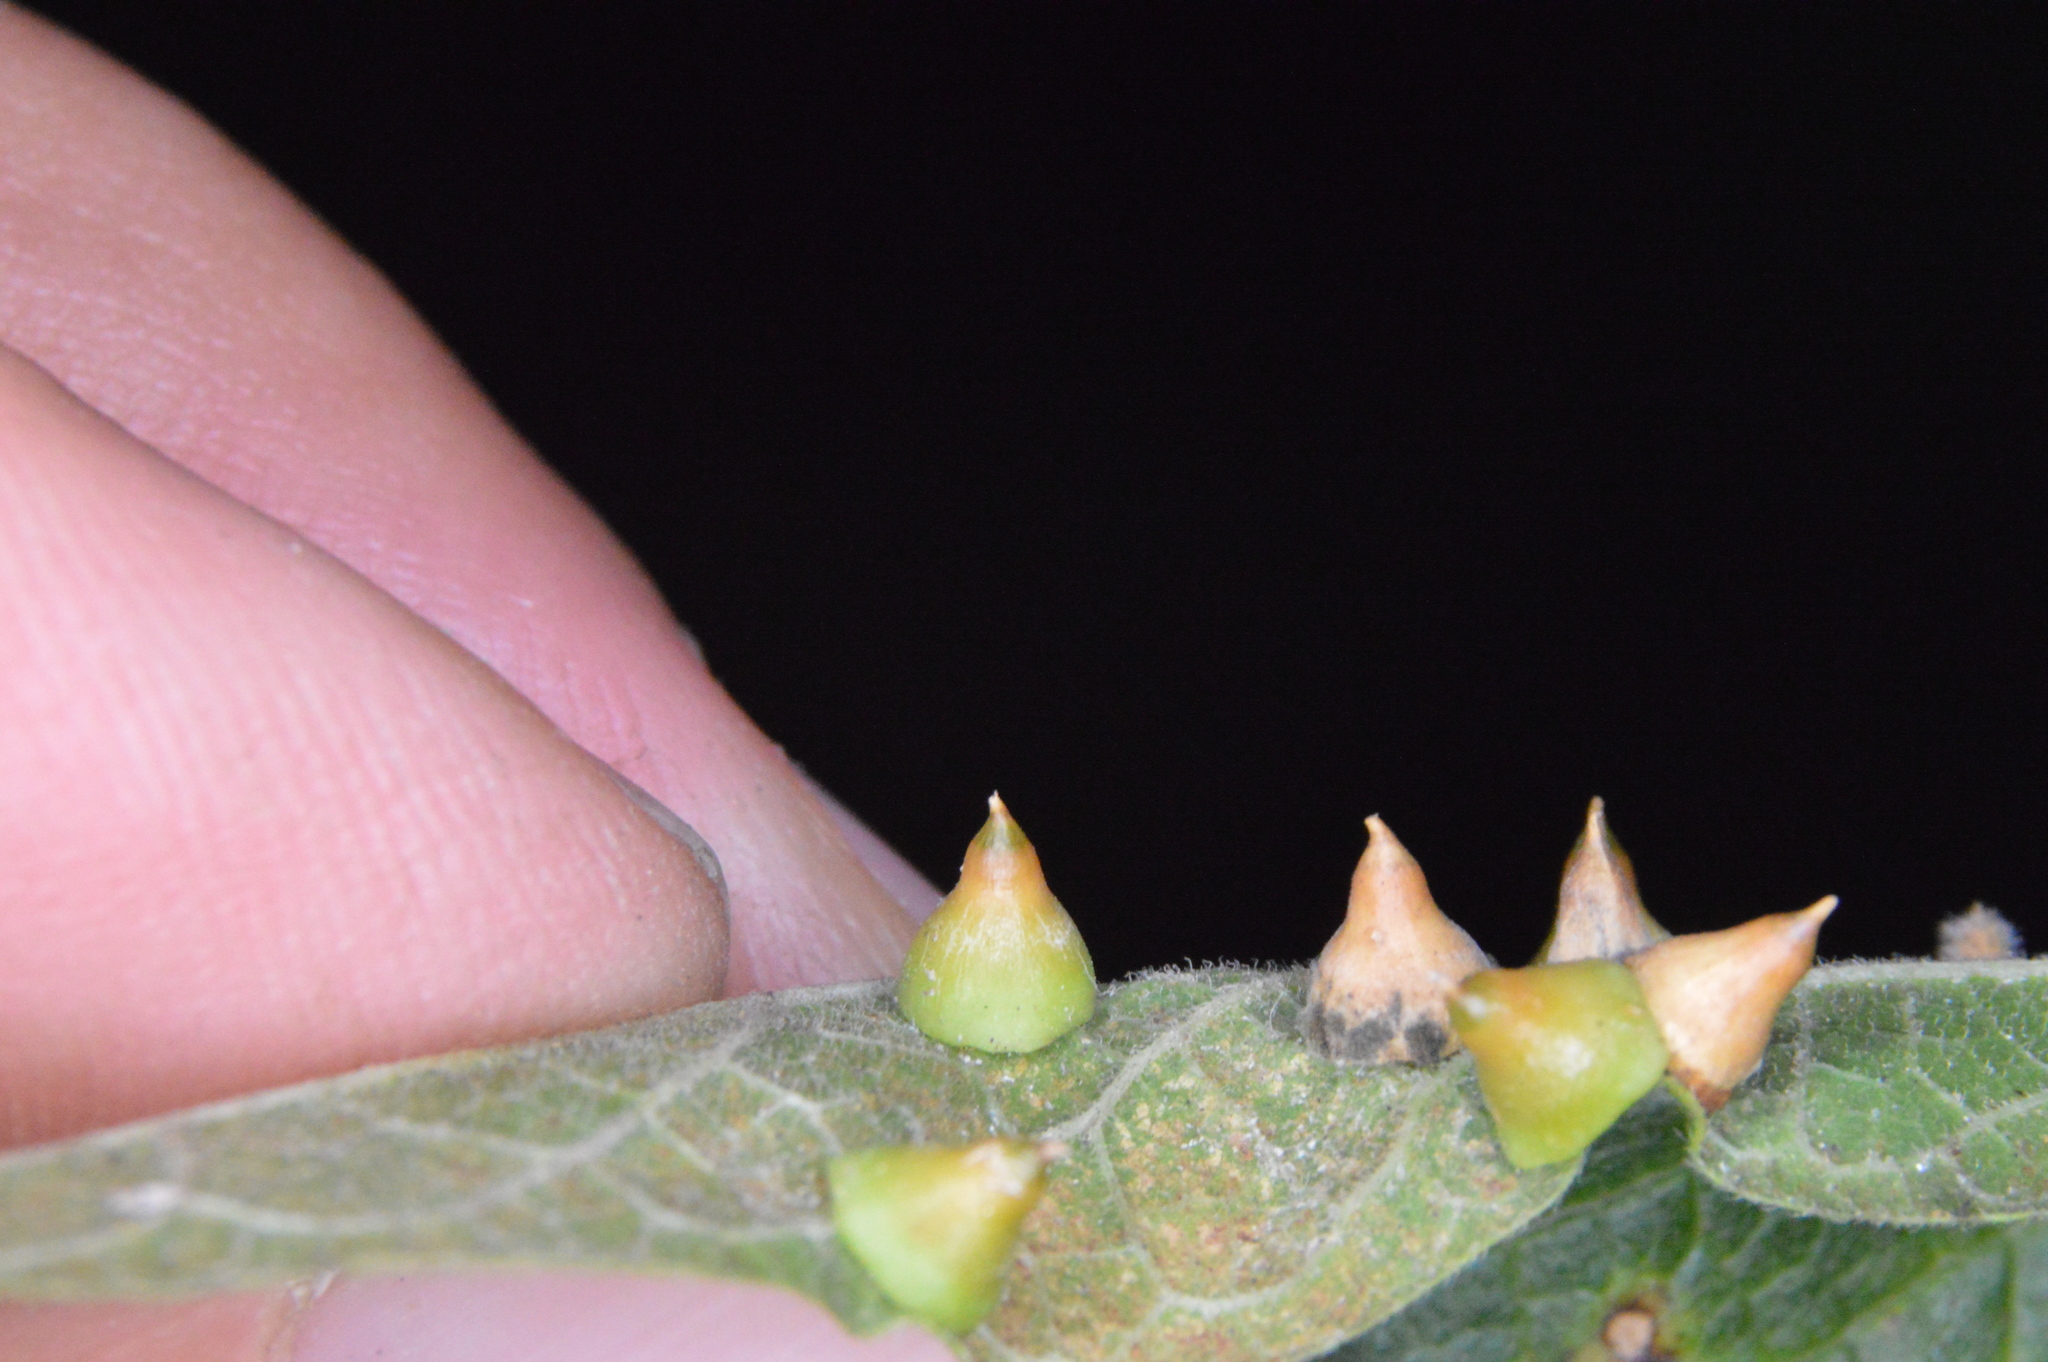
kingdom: Animalia
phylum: Arthropoda
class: Insecta
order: Diptera
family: Cecidomyiidae
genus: Celticecis
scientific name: Celticecis spiniformis
